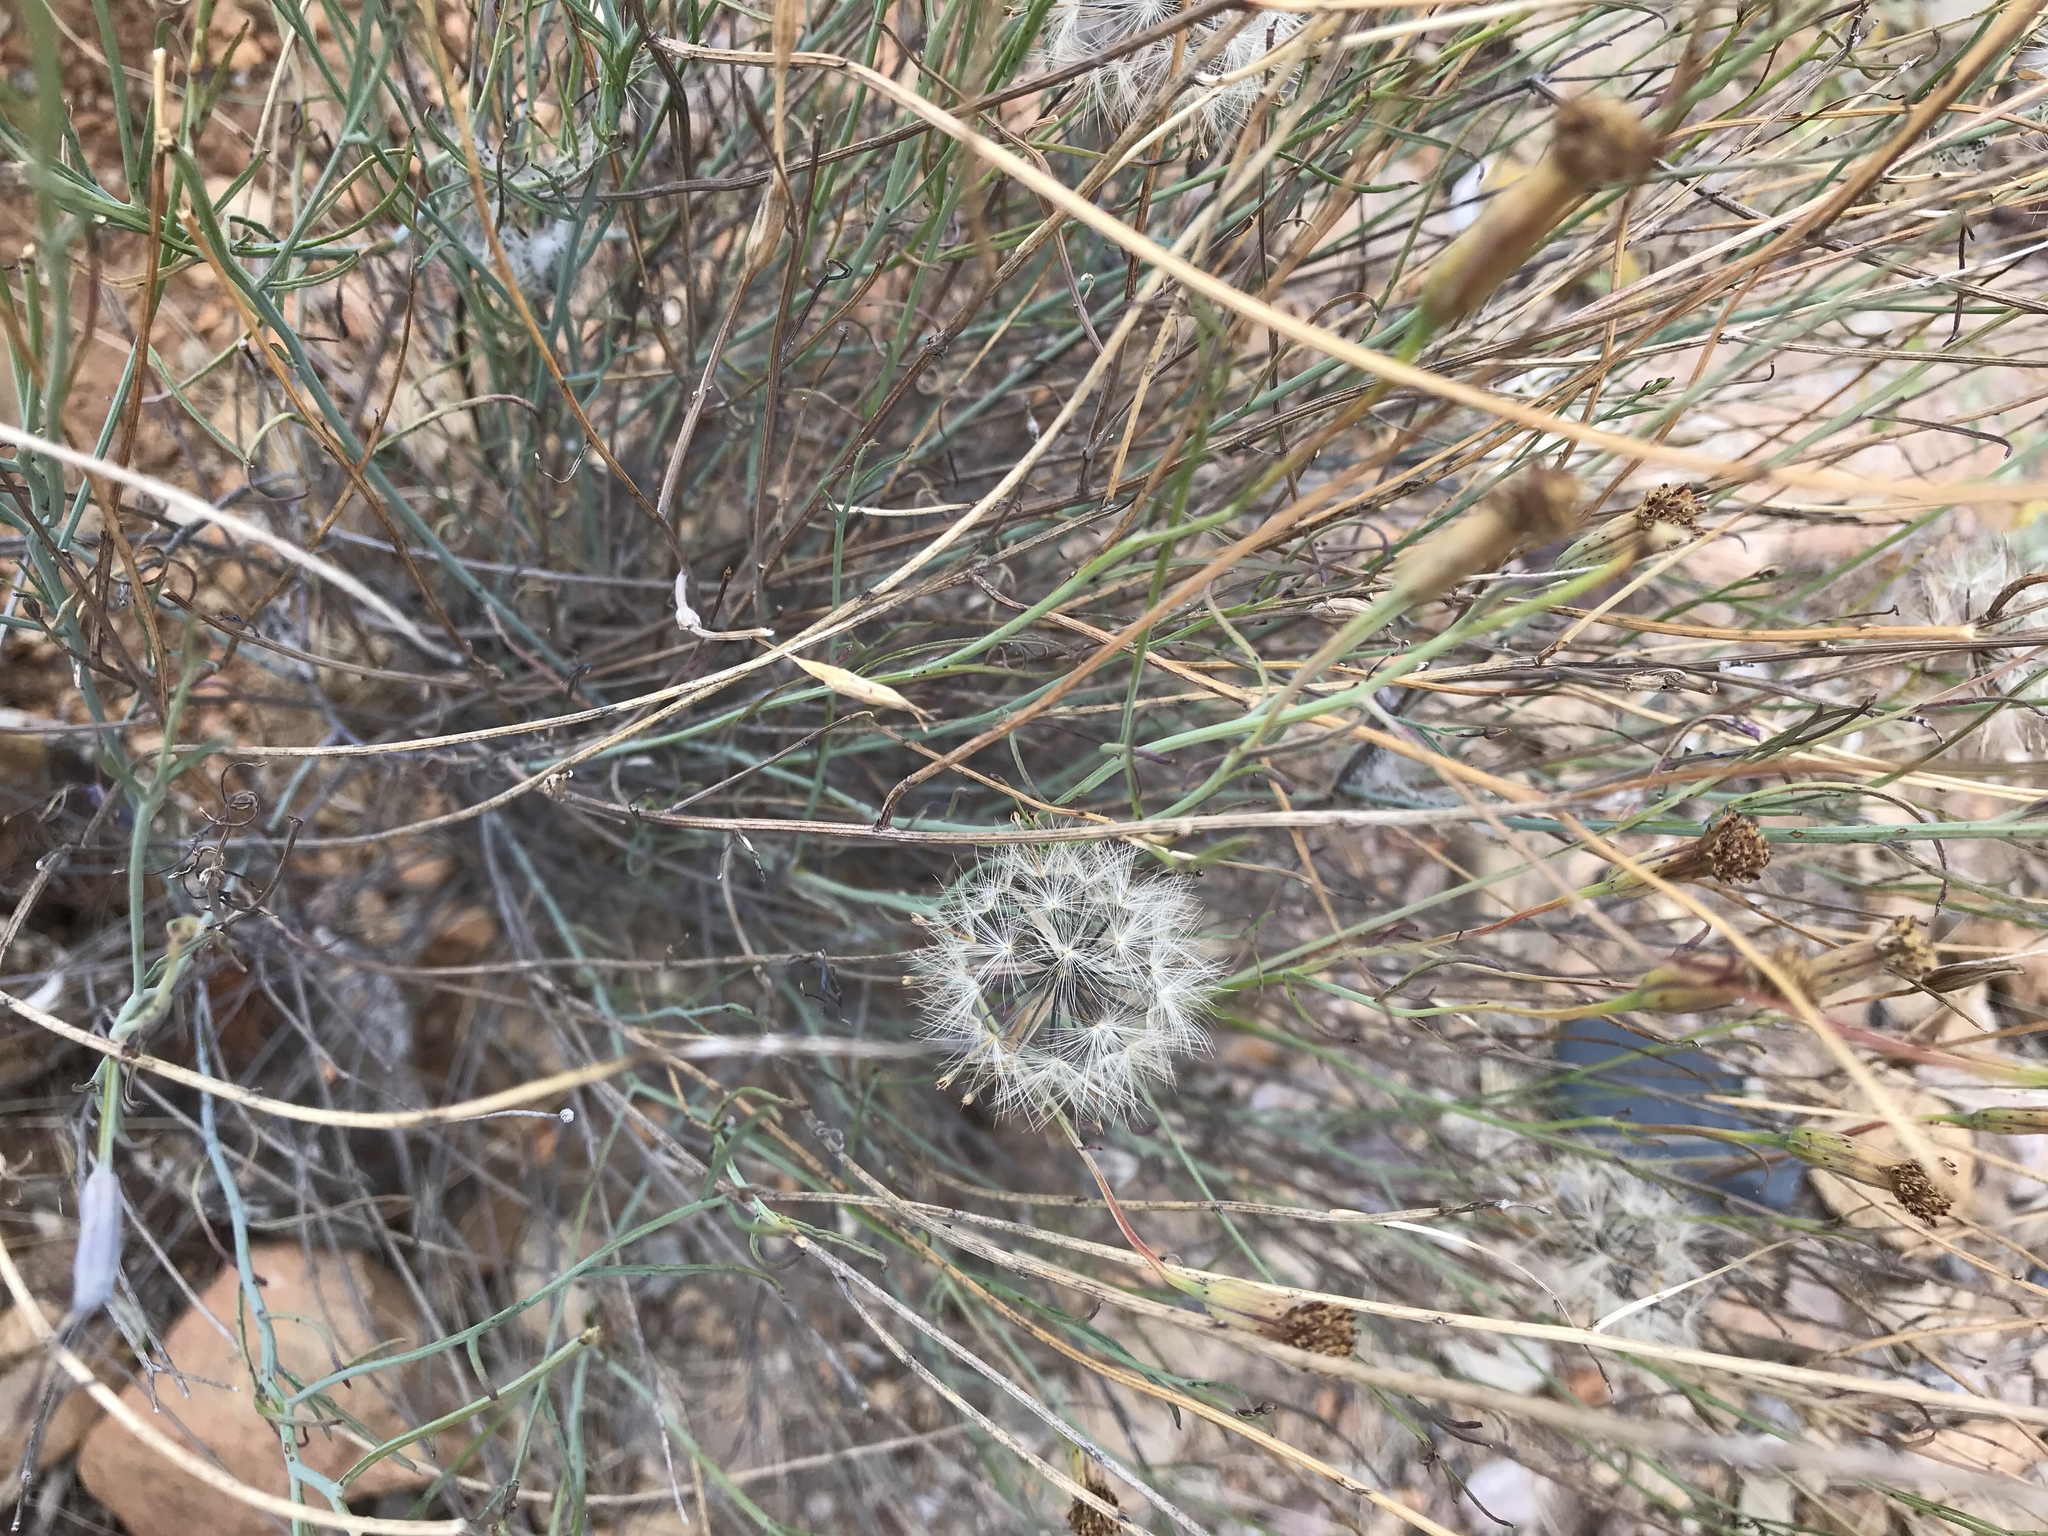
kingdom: Plantae
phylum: Tracheophyta
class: Magnoliopsida
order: Asterales
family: Asteraceae
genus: Porophyllum
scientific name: Porophyllum gracile
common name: Odora
